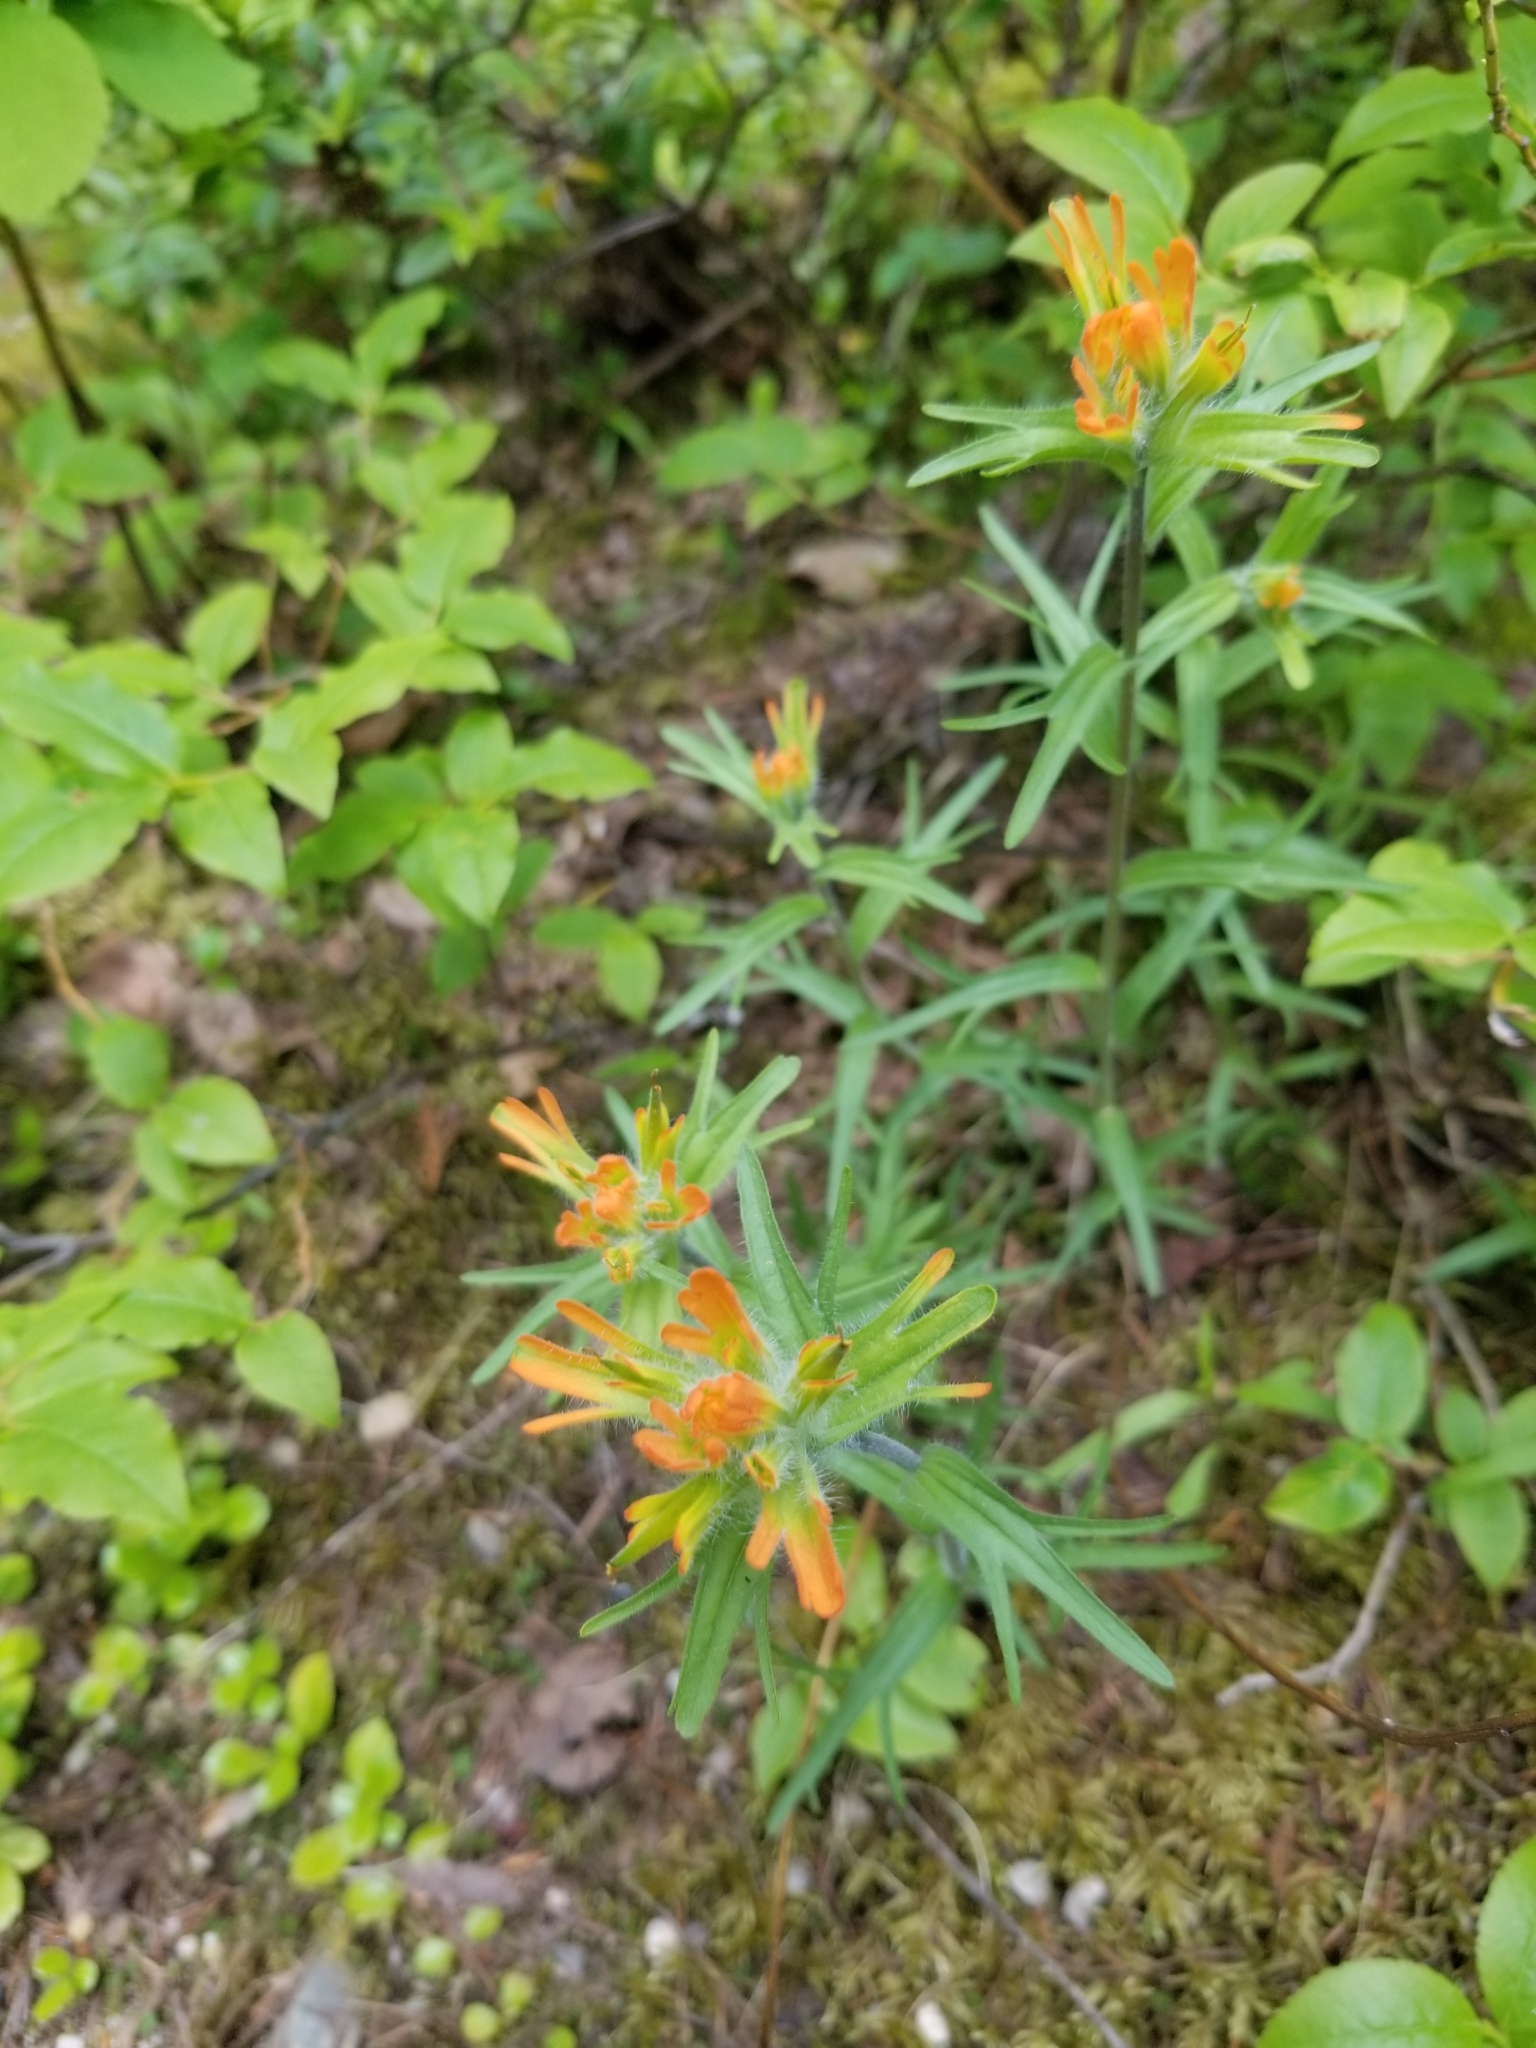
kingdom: Plantae
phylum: Tracheophyta
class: Magnoliopsida
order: Lamiales
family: Orobanchaceae
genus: Castilleja
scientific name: Castilleja hispida
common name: Bristly paintbrush
